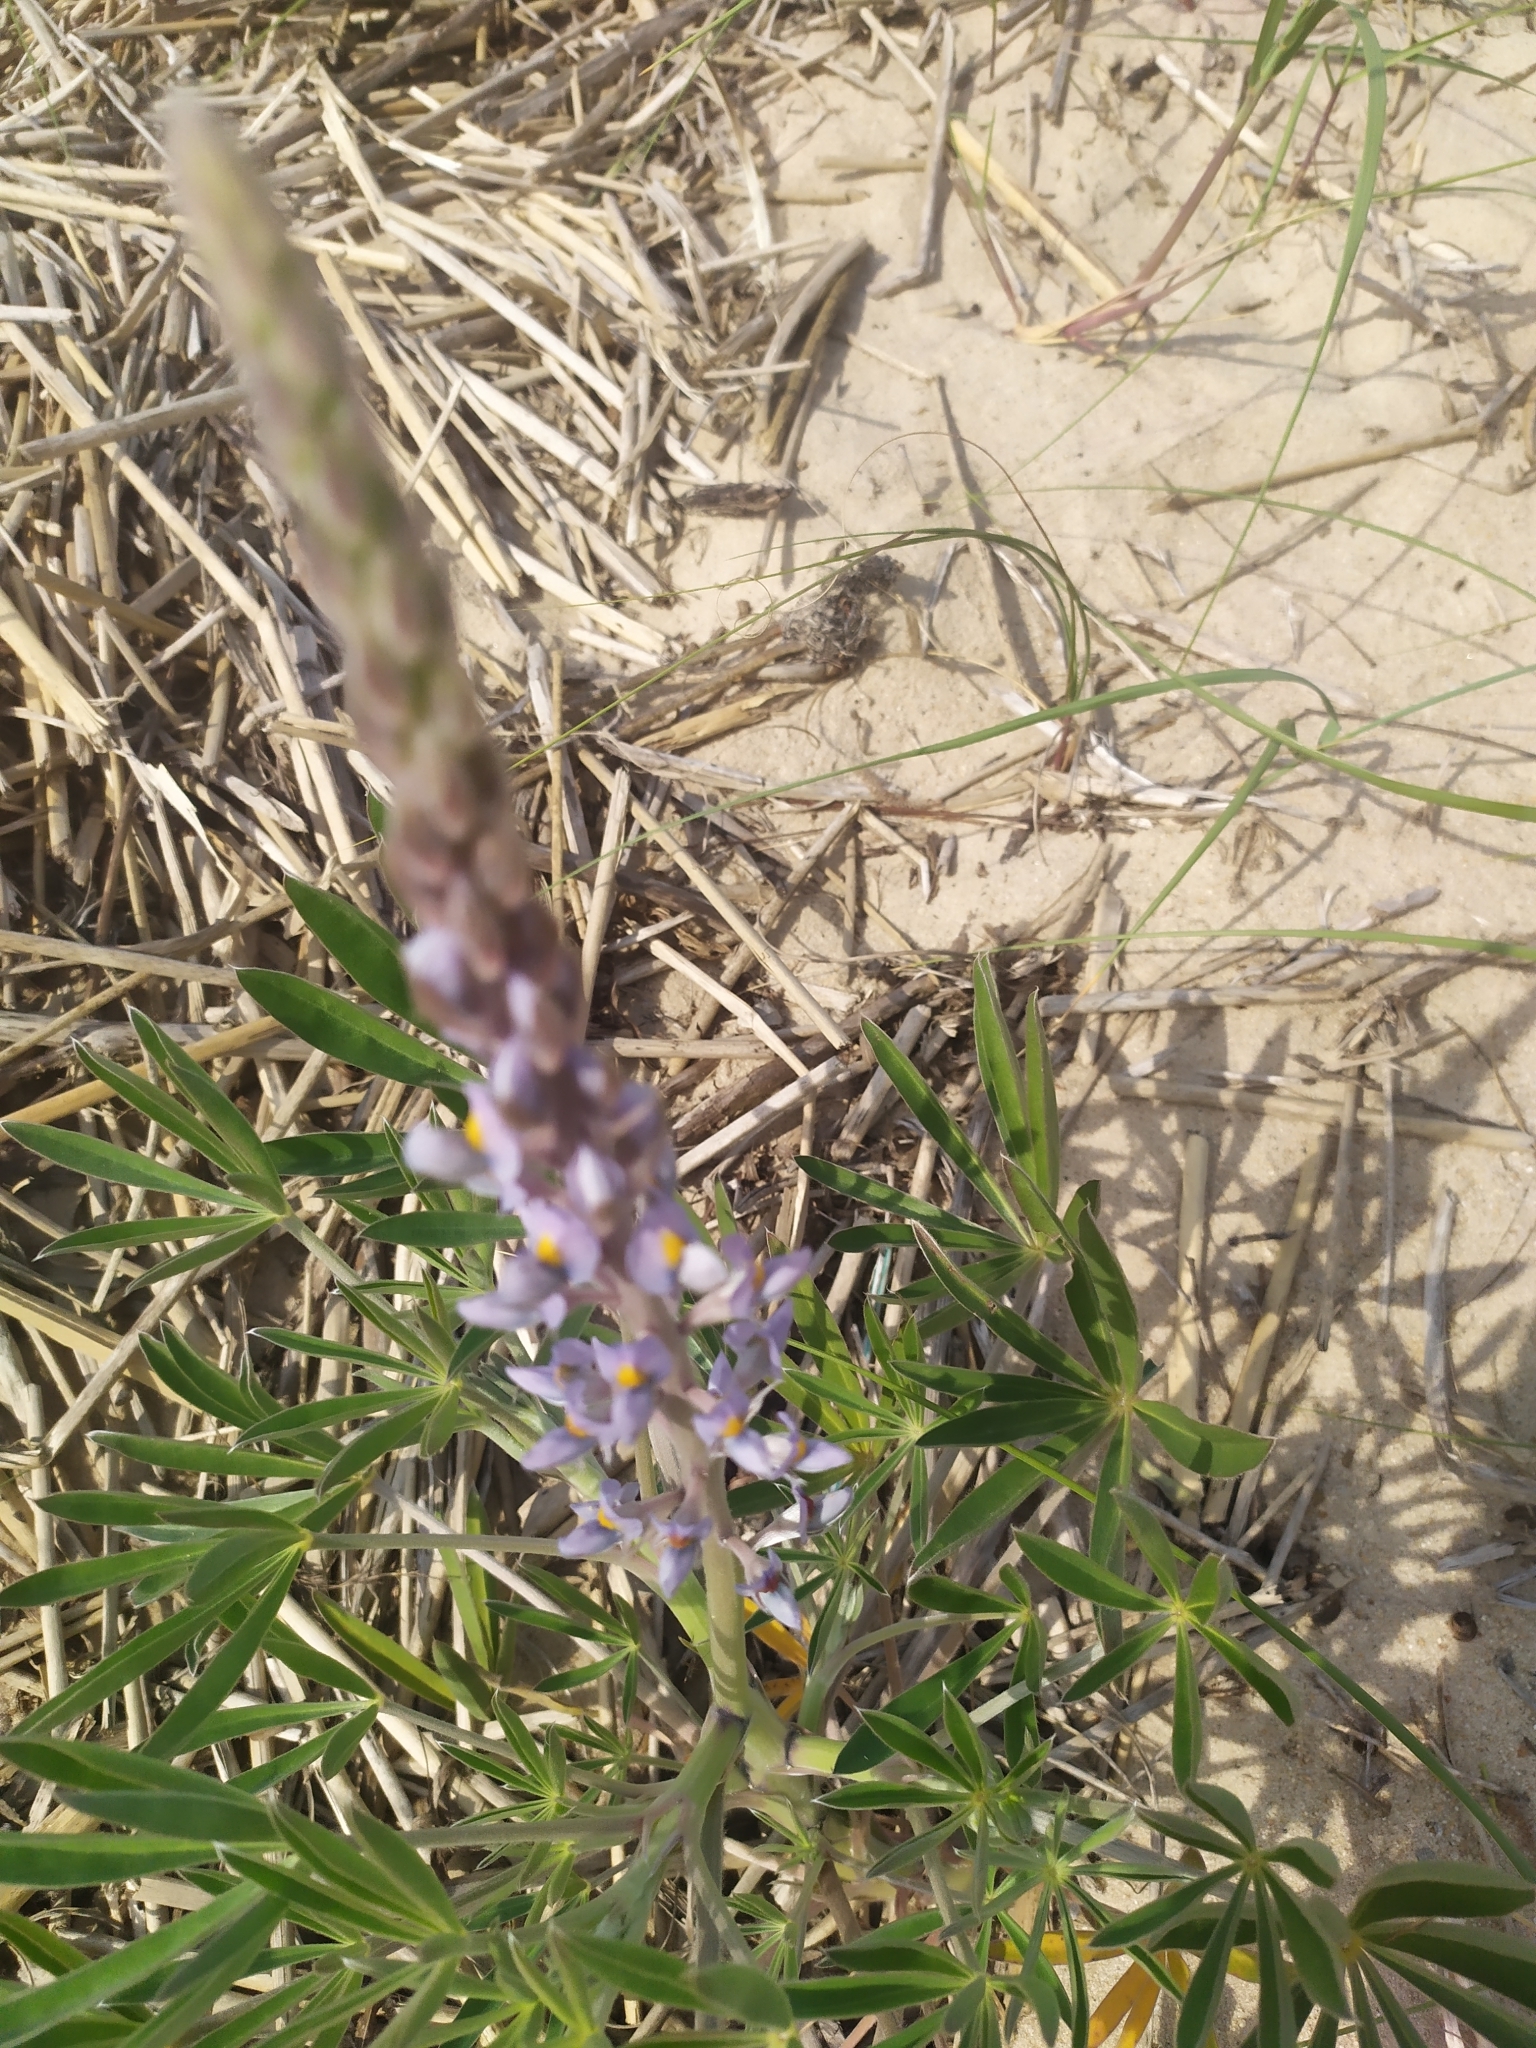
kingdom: Plantae
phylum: Tracheophyta
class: Magnoliopsida
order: Fabales
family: Fabaceae
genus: Lupinus
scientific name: Lupinus albescens
